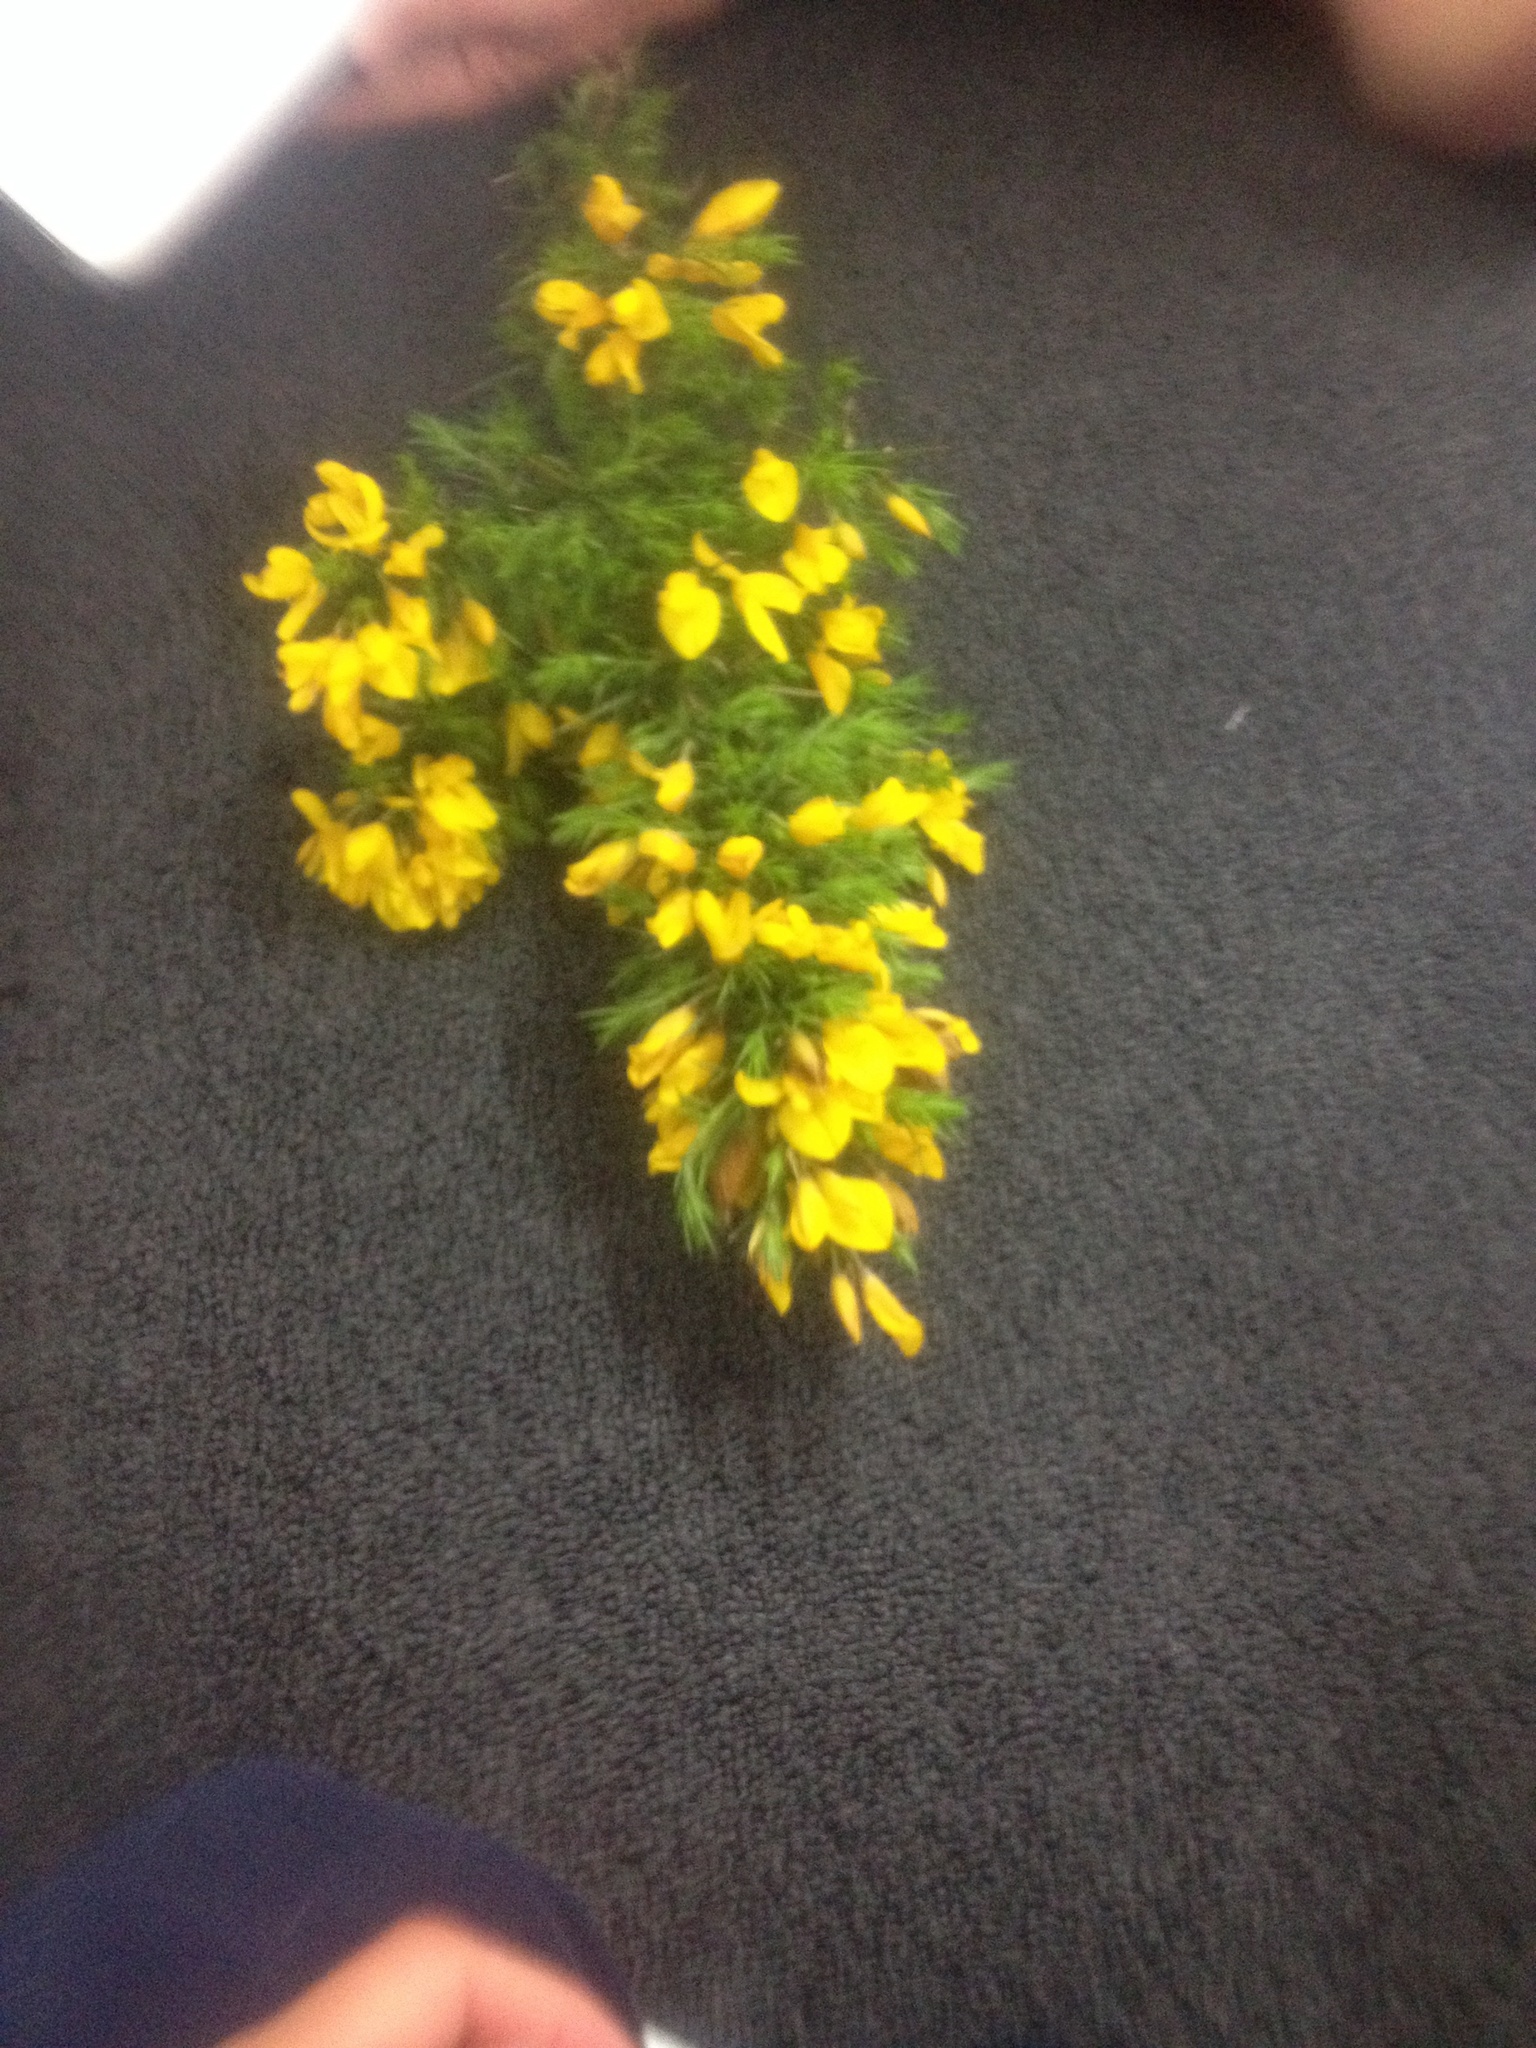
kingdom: Plantae
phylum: Tracheophyta
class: Magnoliopsida
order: Fabales
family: Fabaceae
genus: Ulex
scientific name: Ulex europaeus
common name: Common gorse
